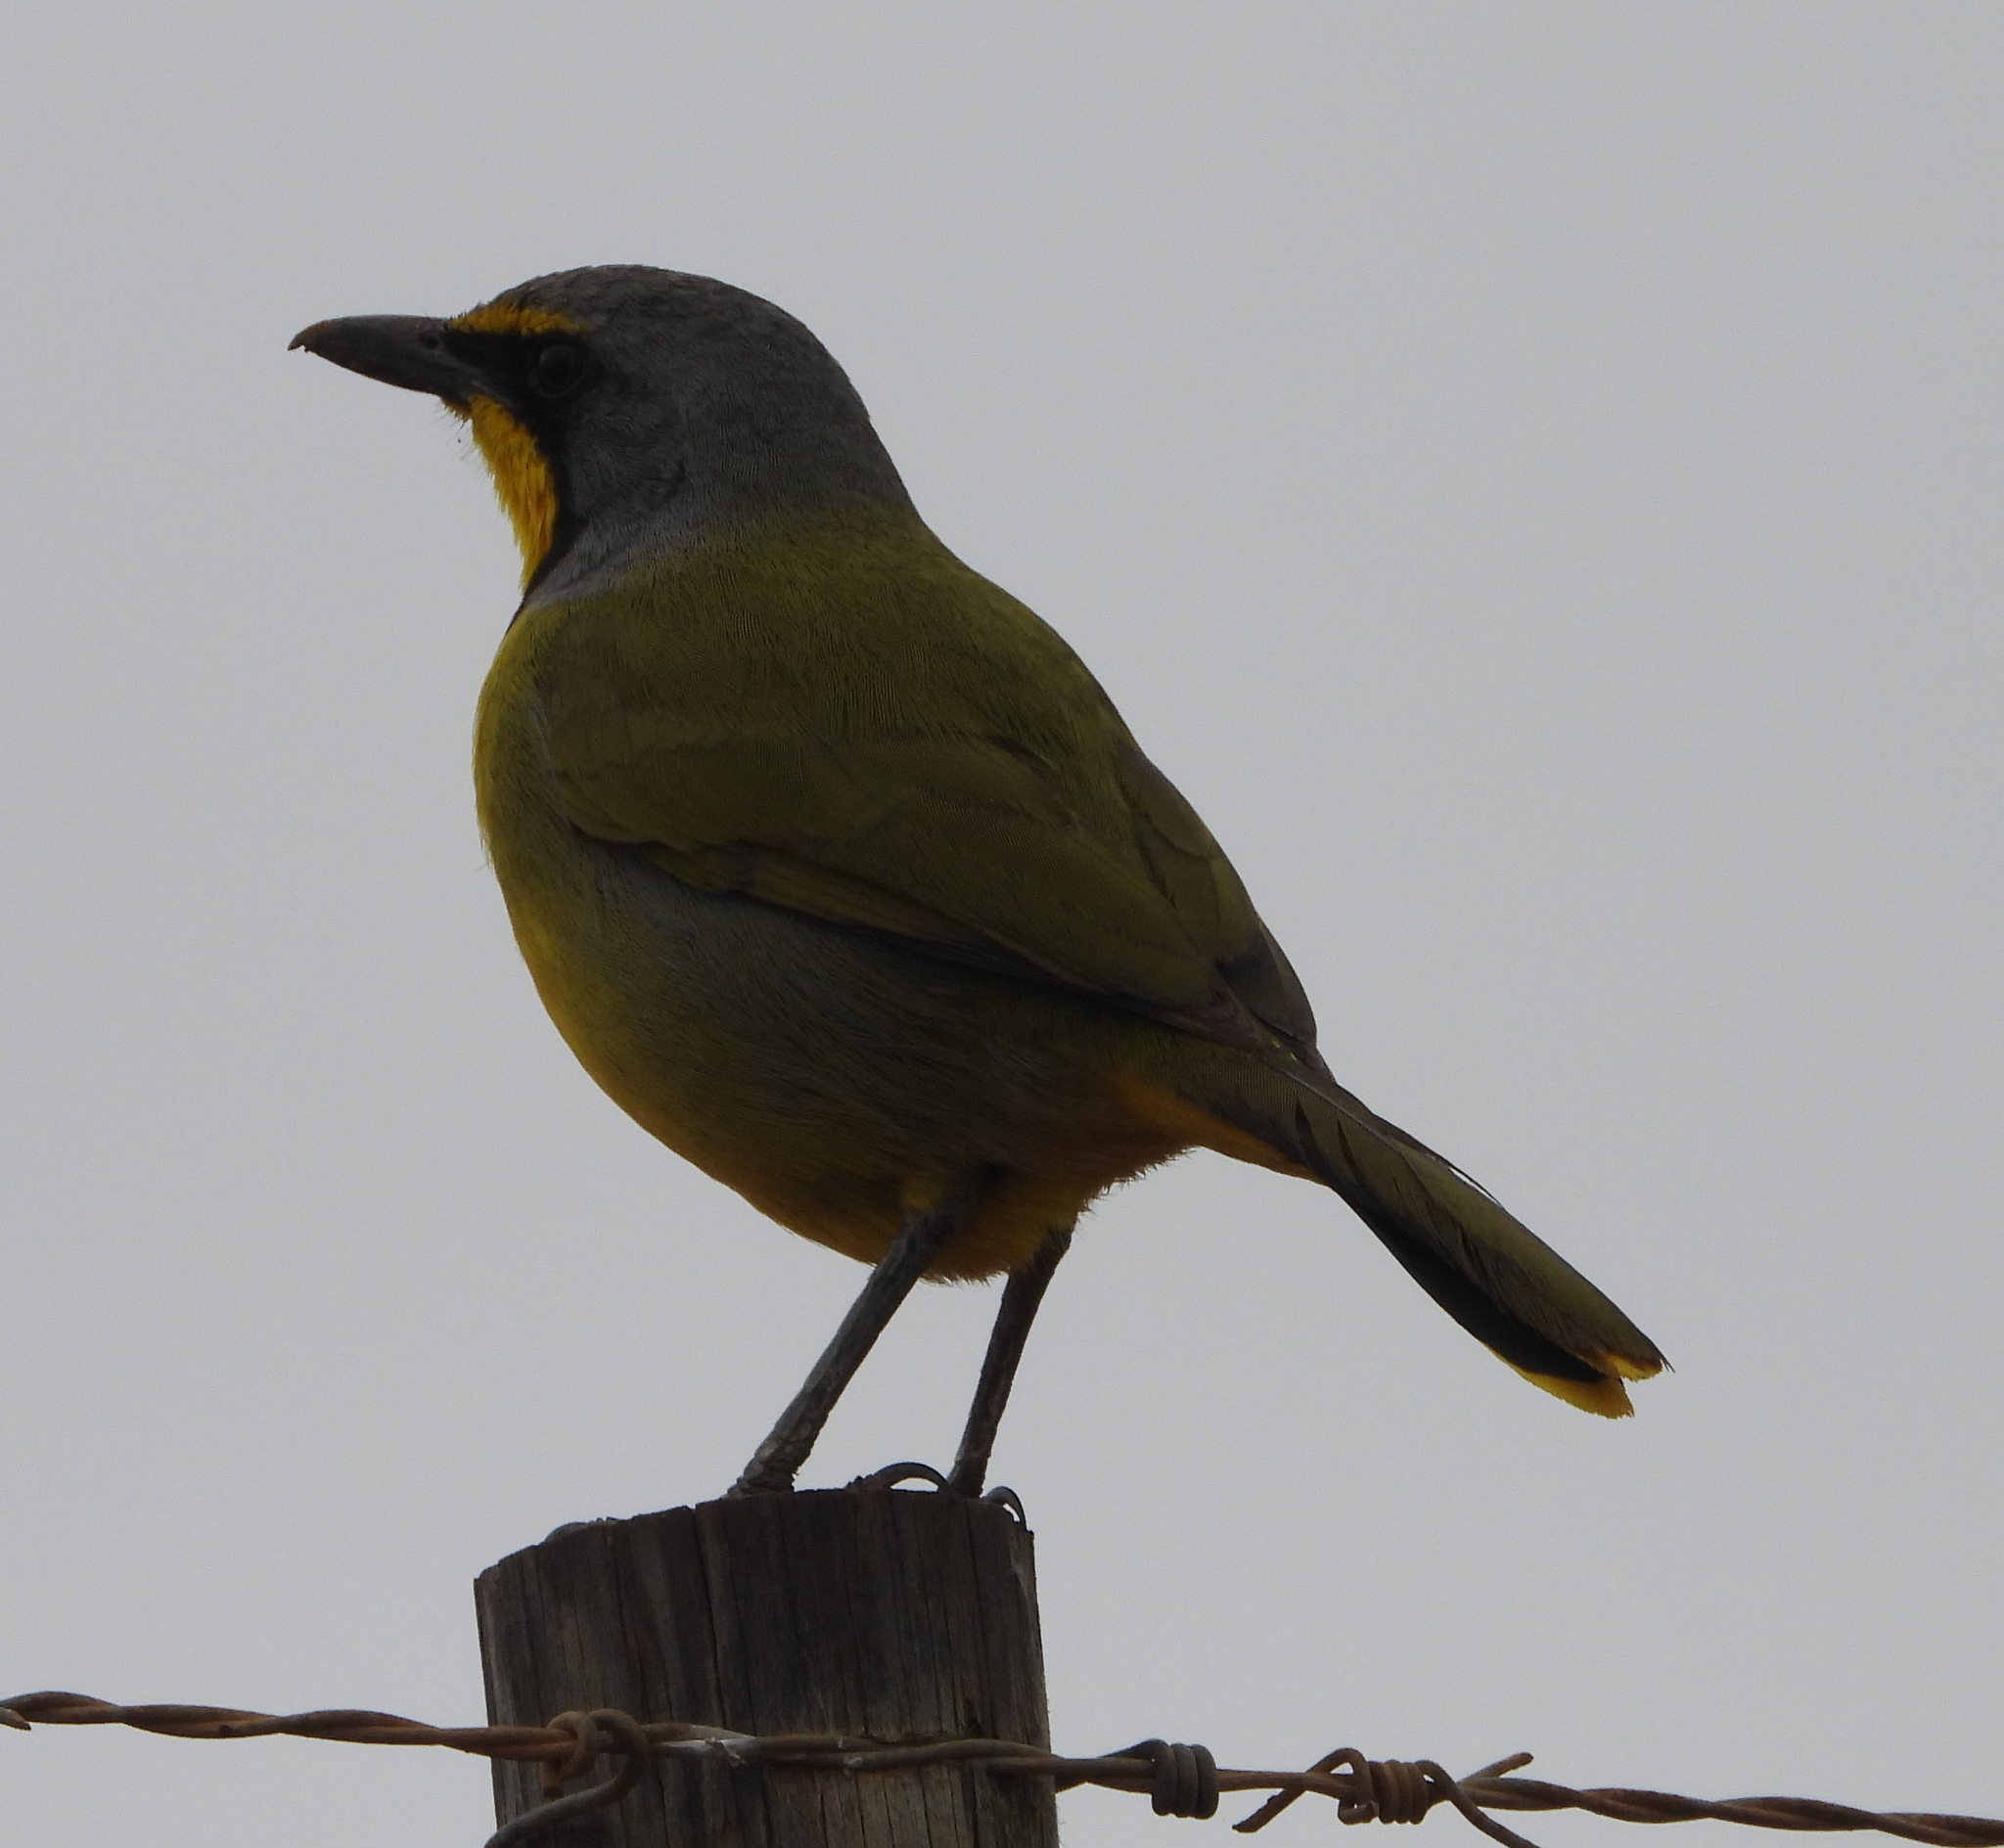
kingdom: Animalia
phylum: Chordata
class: Aves
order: Passeriformes
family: Malaconotidae
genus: Telophorus
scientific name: Telophorus zeylonus
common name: Bokmakierie
